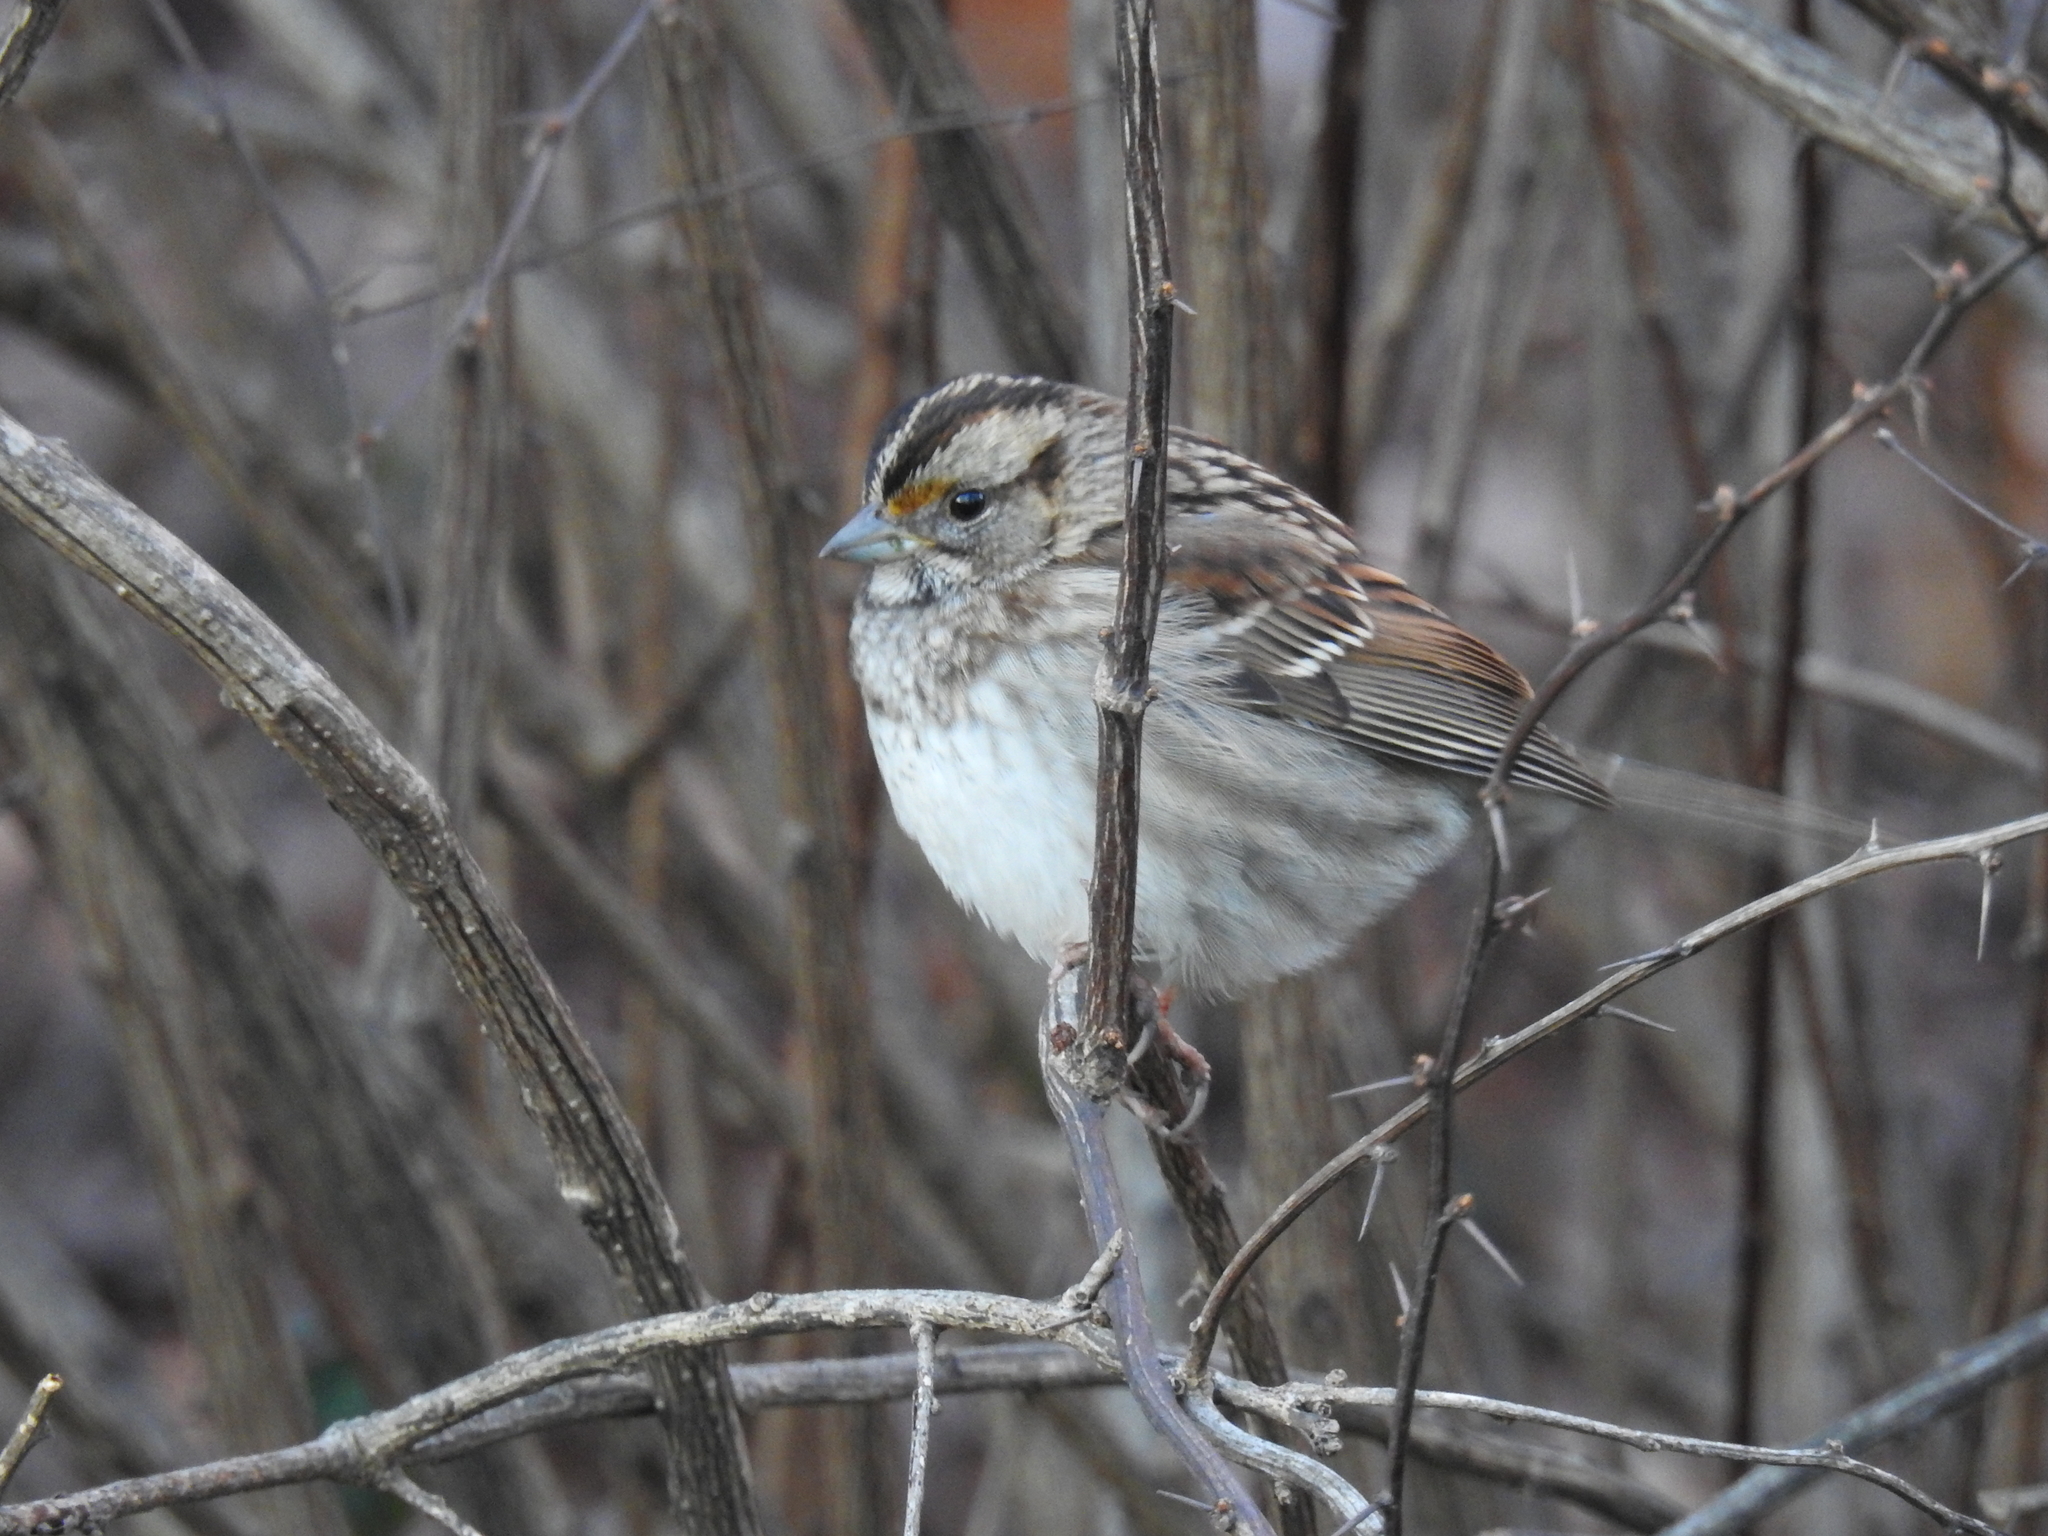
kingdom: Animalia
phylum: Chordata
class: Aves
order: Passeriformes
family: Passerellidae
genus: Zonotrichia
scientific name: Zonotrichia albicollis
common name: White-throated sparrow
